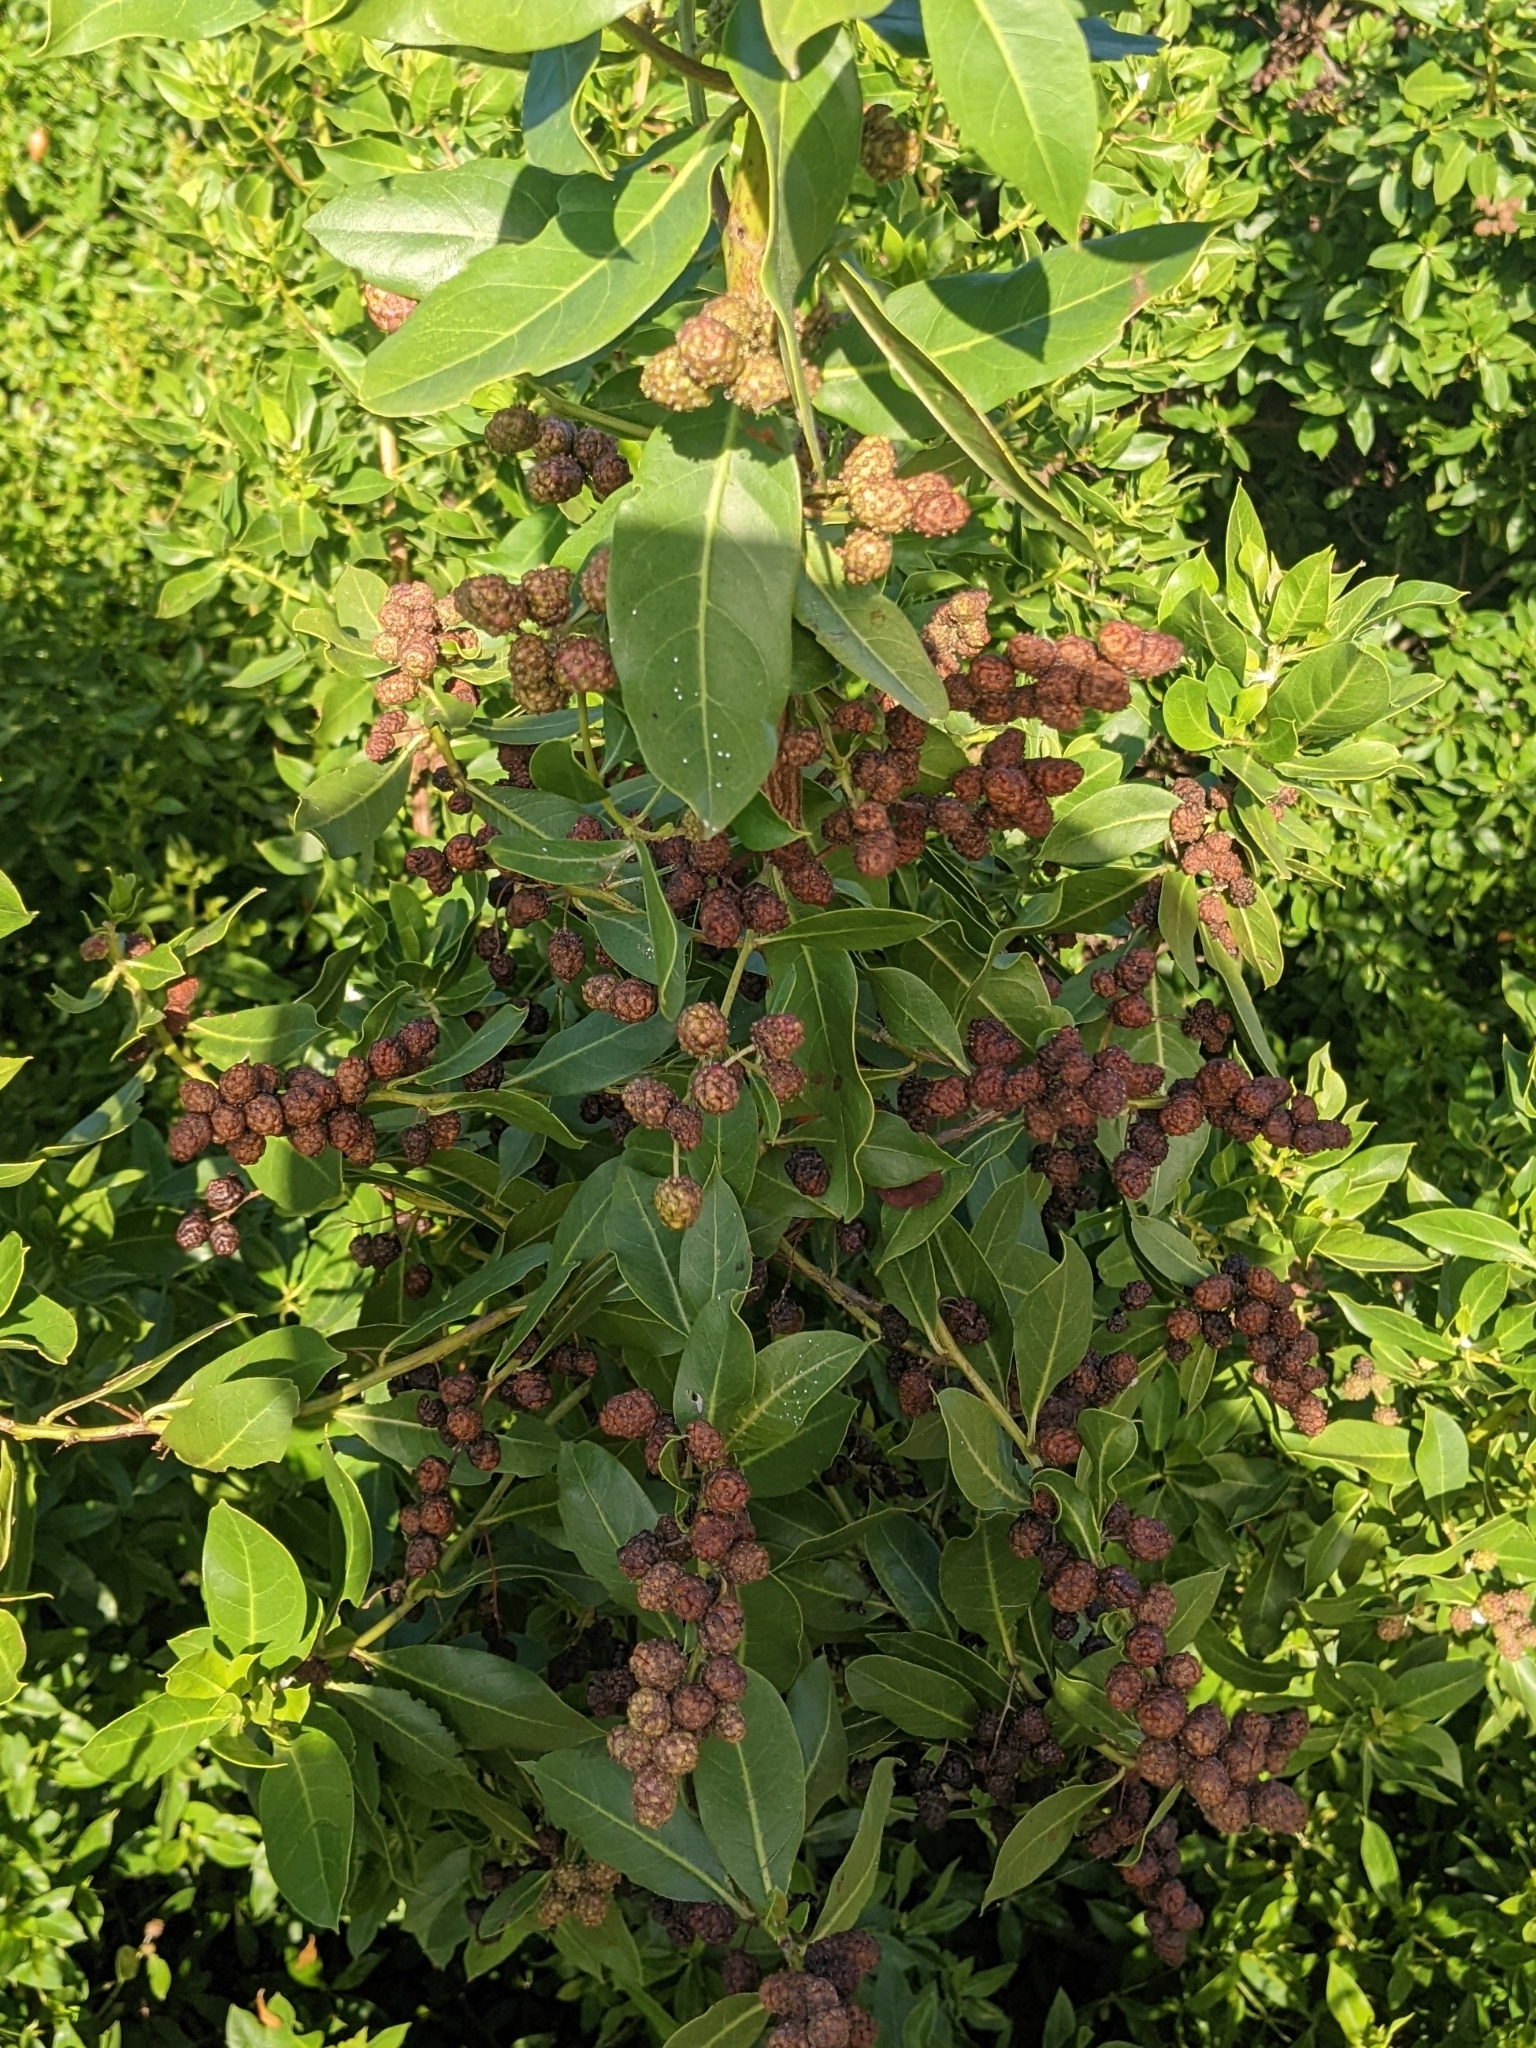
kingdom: Plantae
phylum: Tracheophyta
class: Magnoliopsida
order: Myrtales
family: Combretaceae
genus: Conocarpus
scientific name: Conocarpus erectus
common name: Button mangrove
